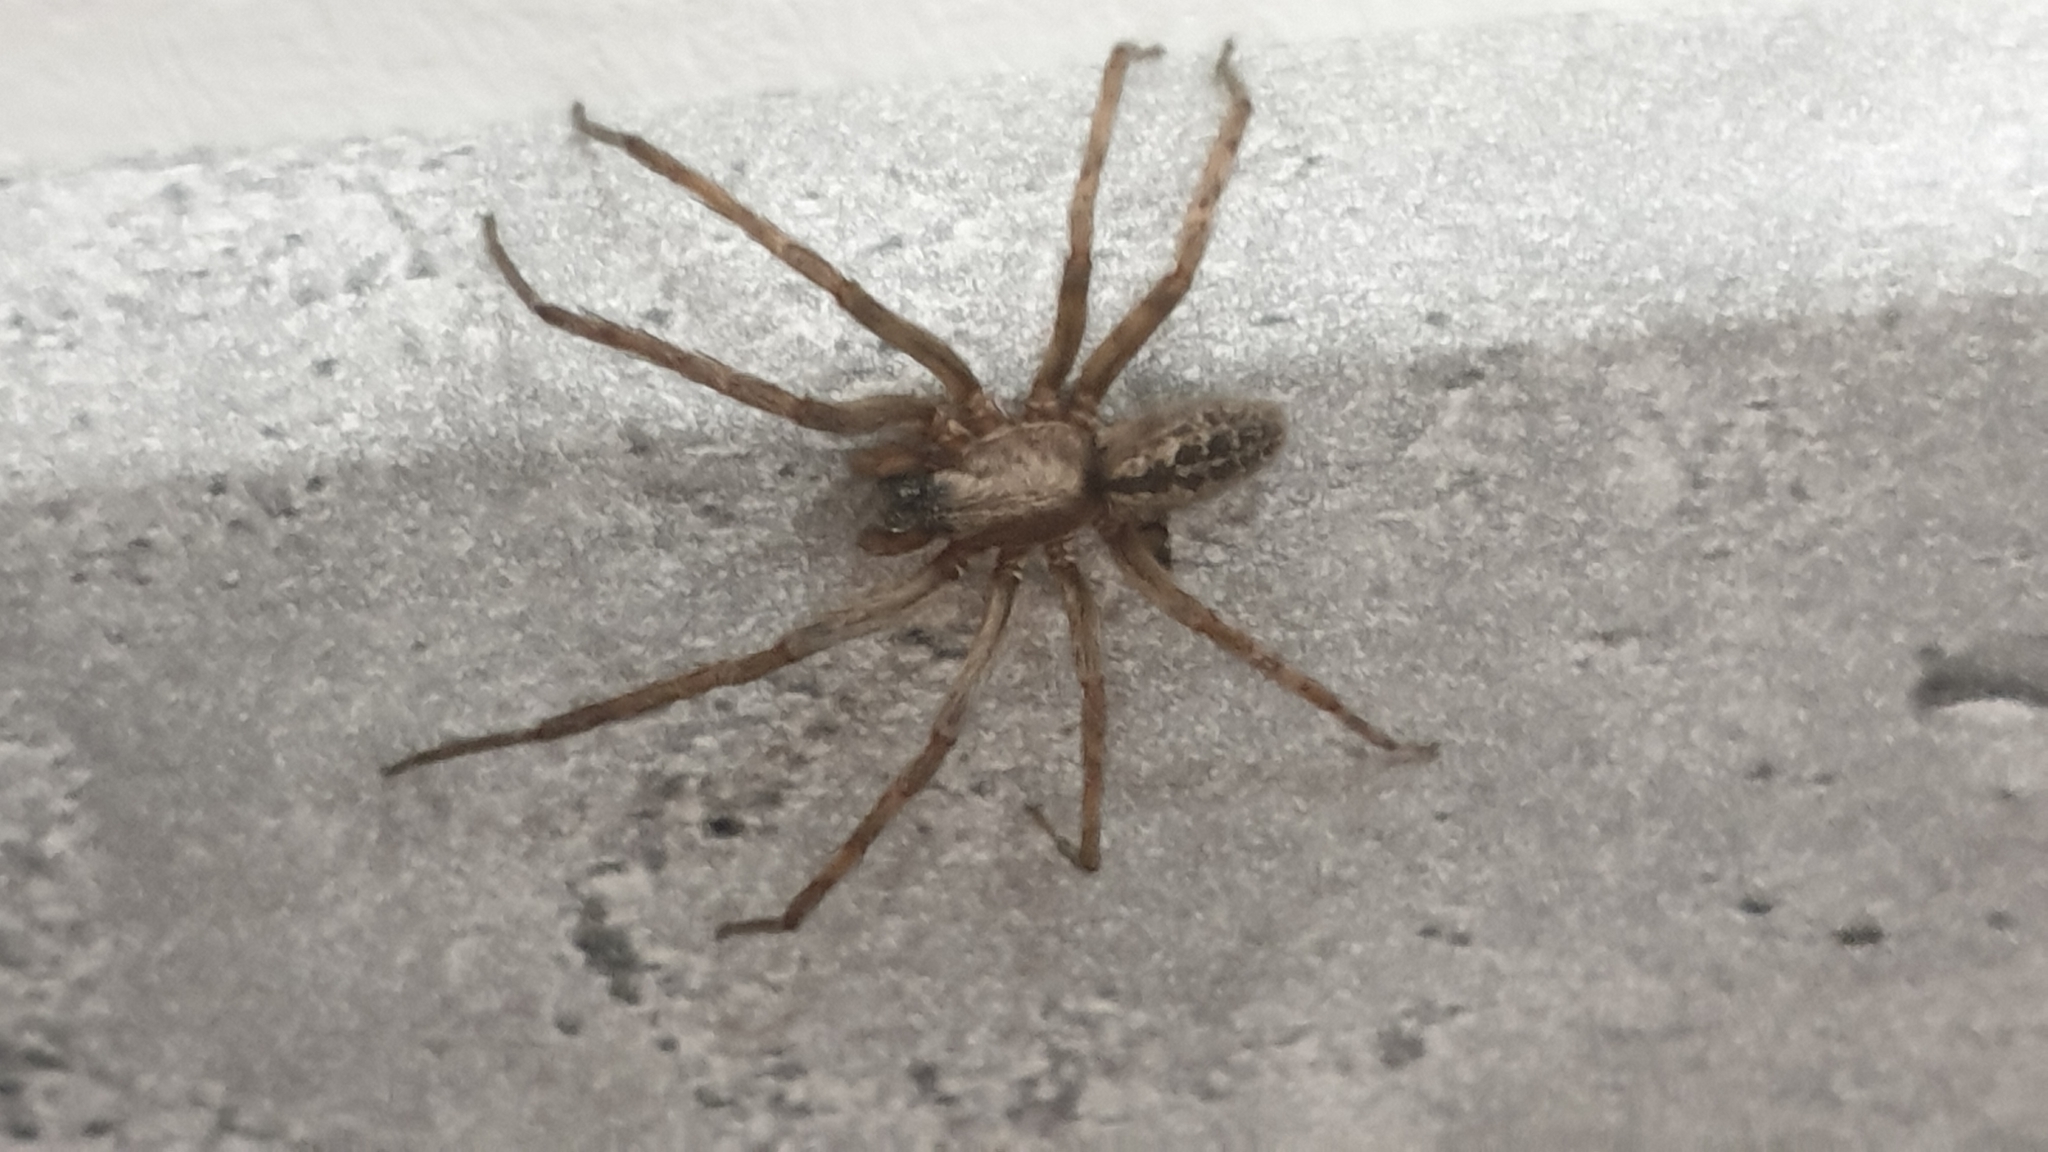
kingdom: Animalia
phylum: Arthropoda
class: Arachnida
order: Araneae
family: Segestriidae
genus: Segestria
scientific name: Segestria bavarica
